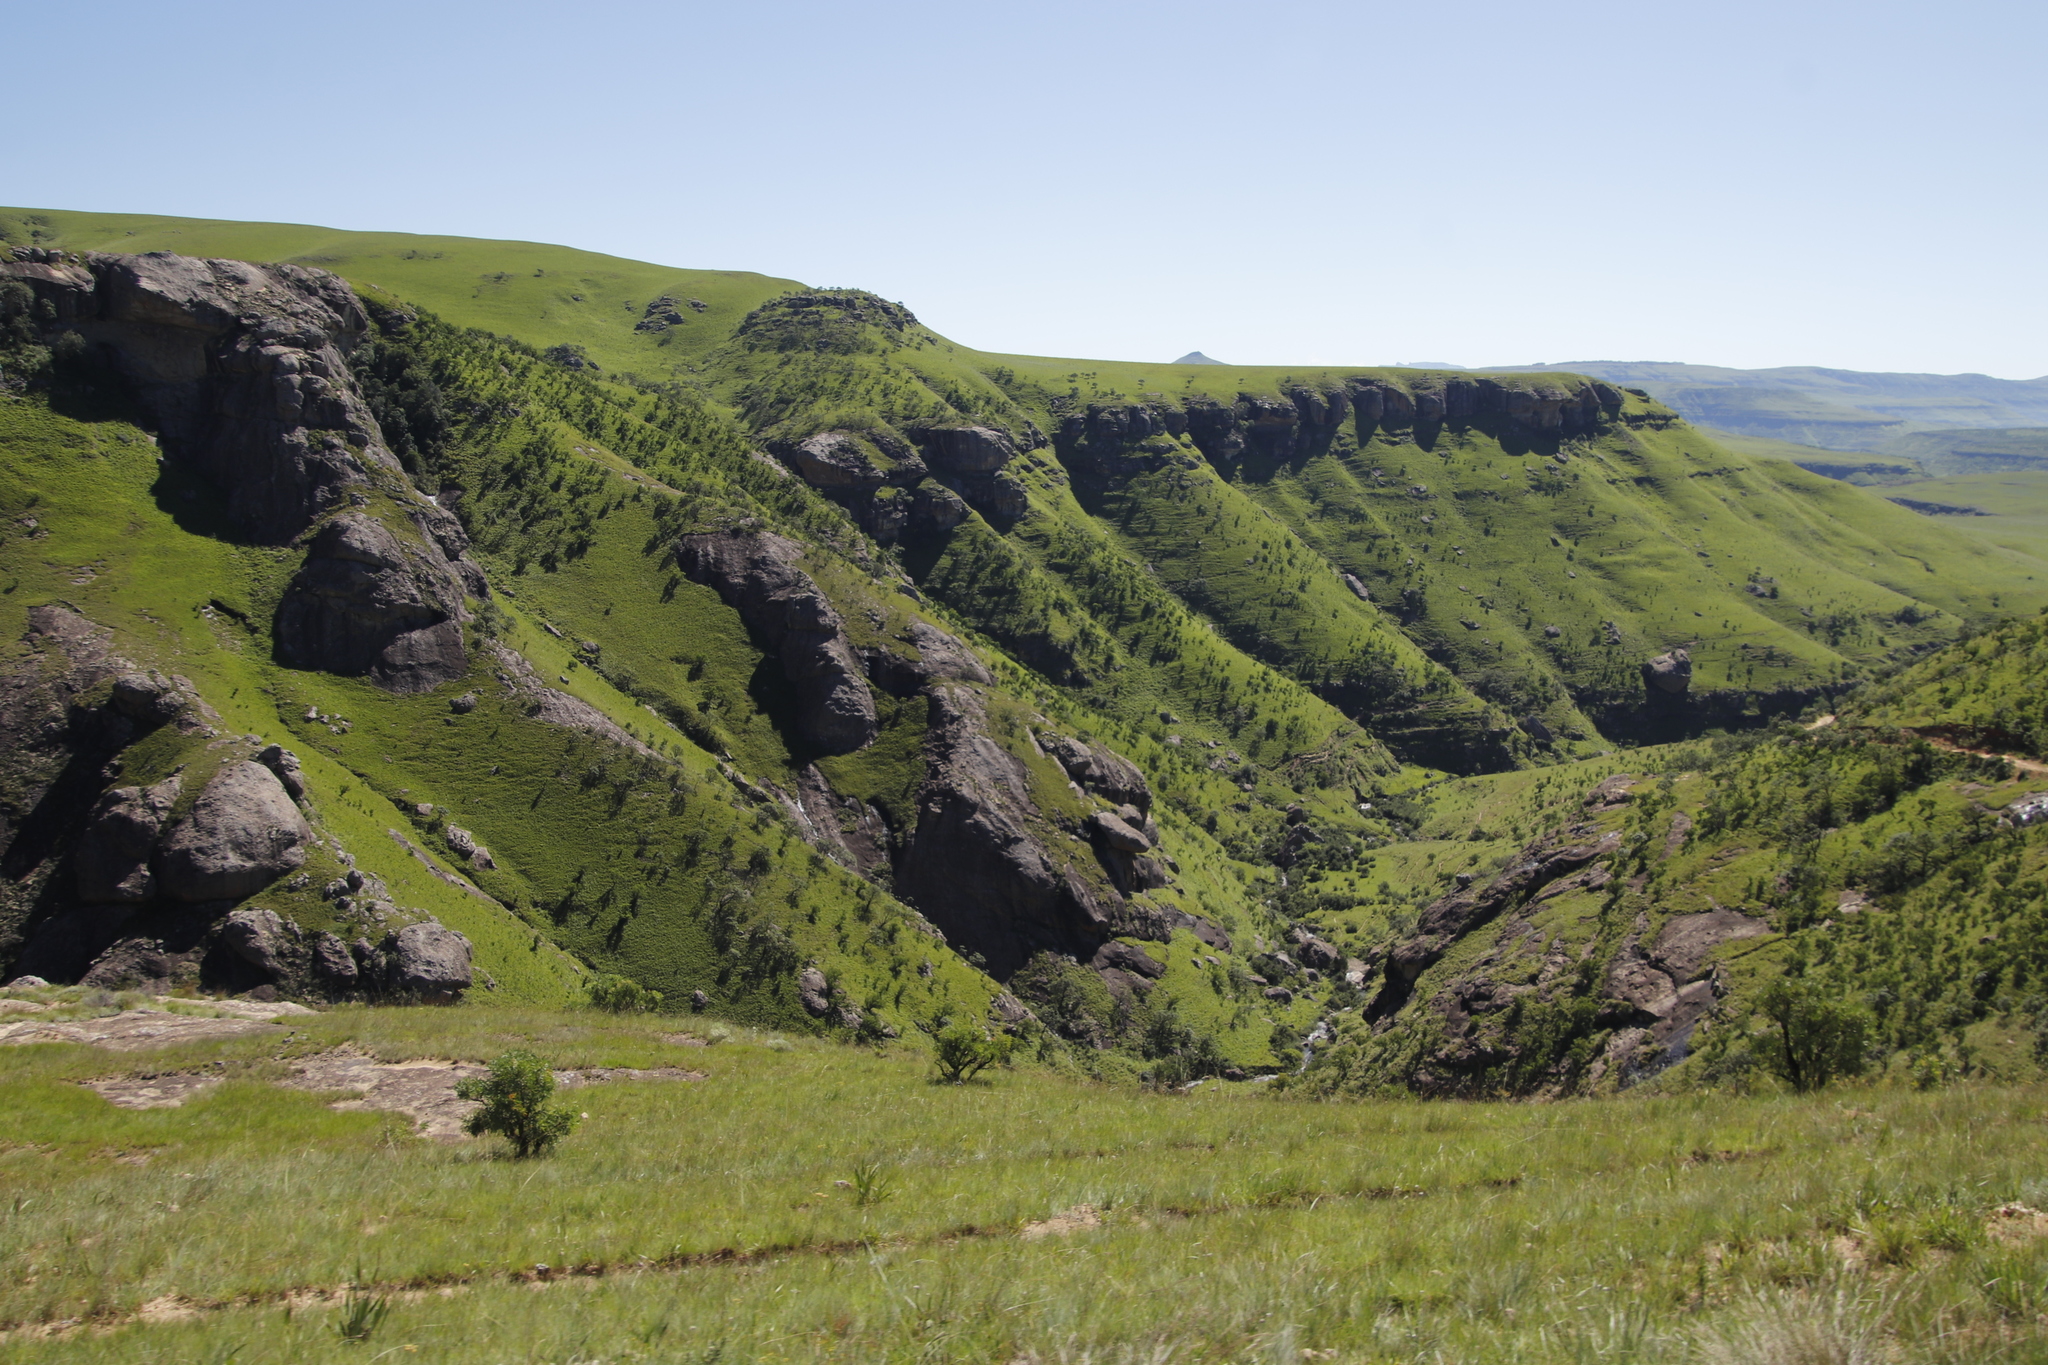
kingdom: Plantae
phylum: Tracheophyta
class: Magnoliopsida
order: Proteales
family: Proteaceae
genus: Protea
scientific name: Protea caffra
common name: Common sugarbush
